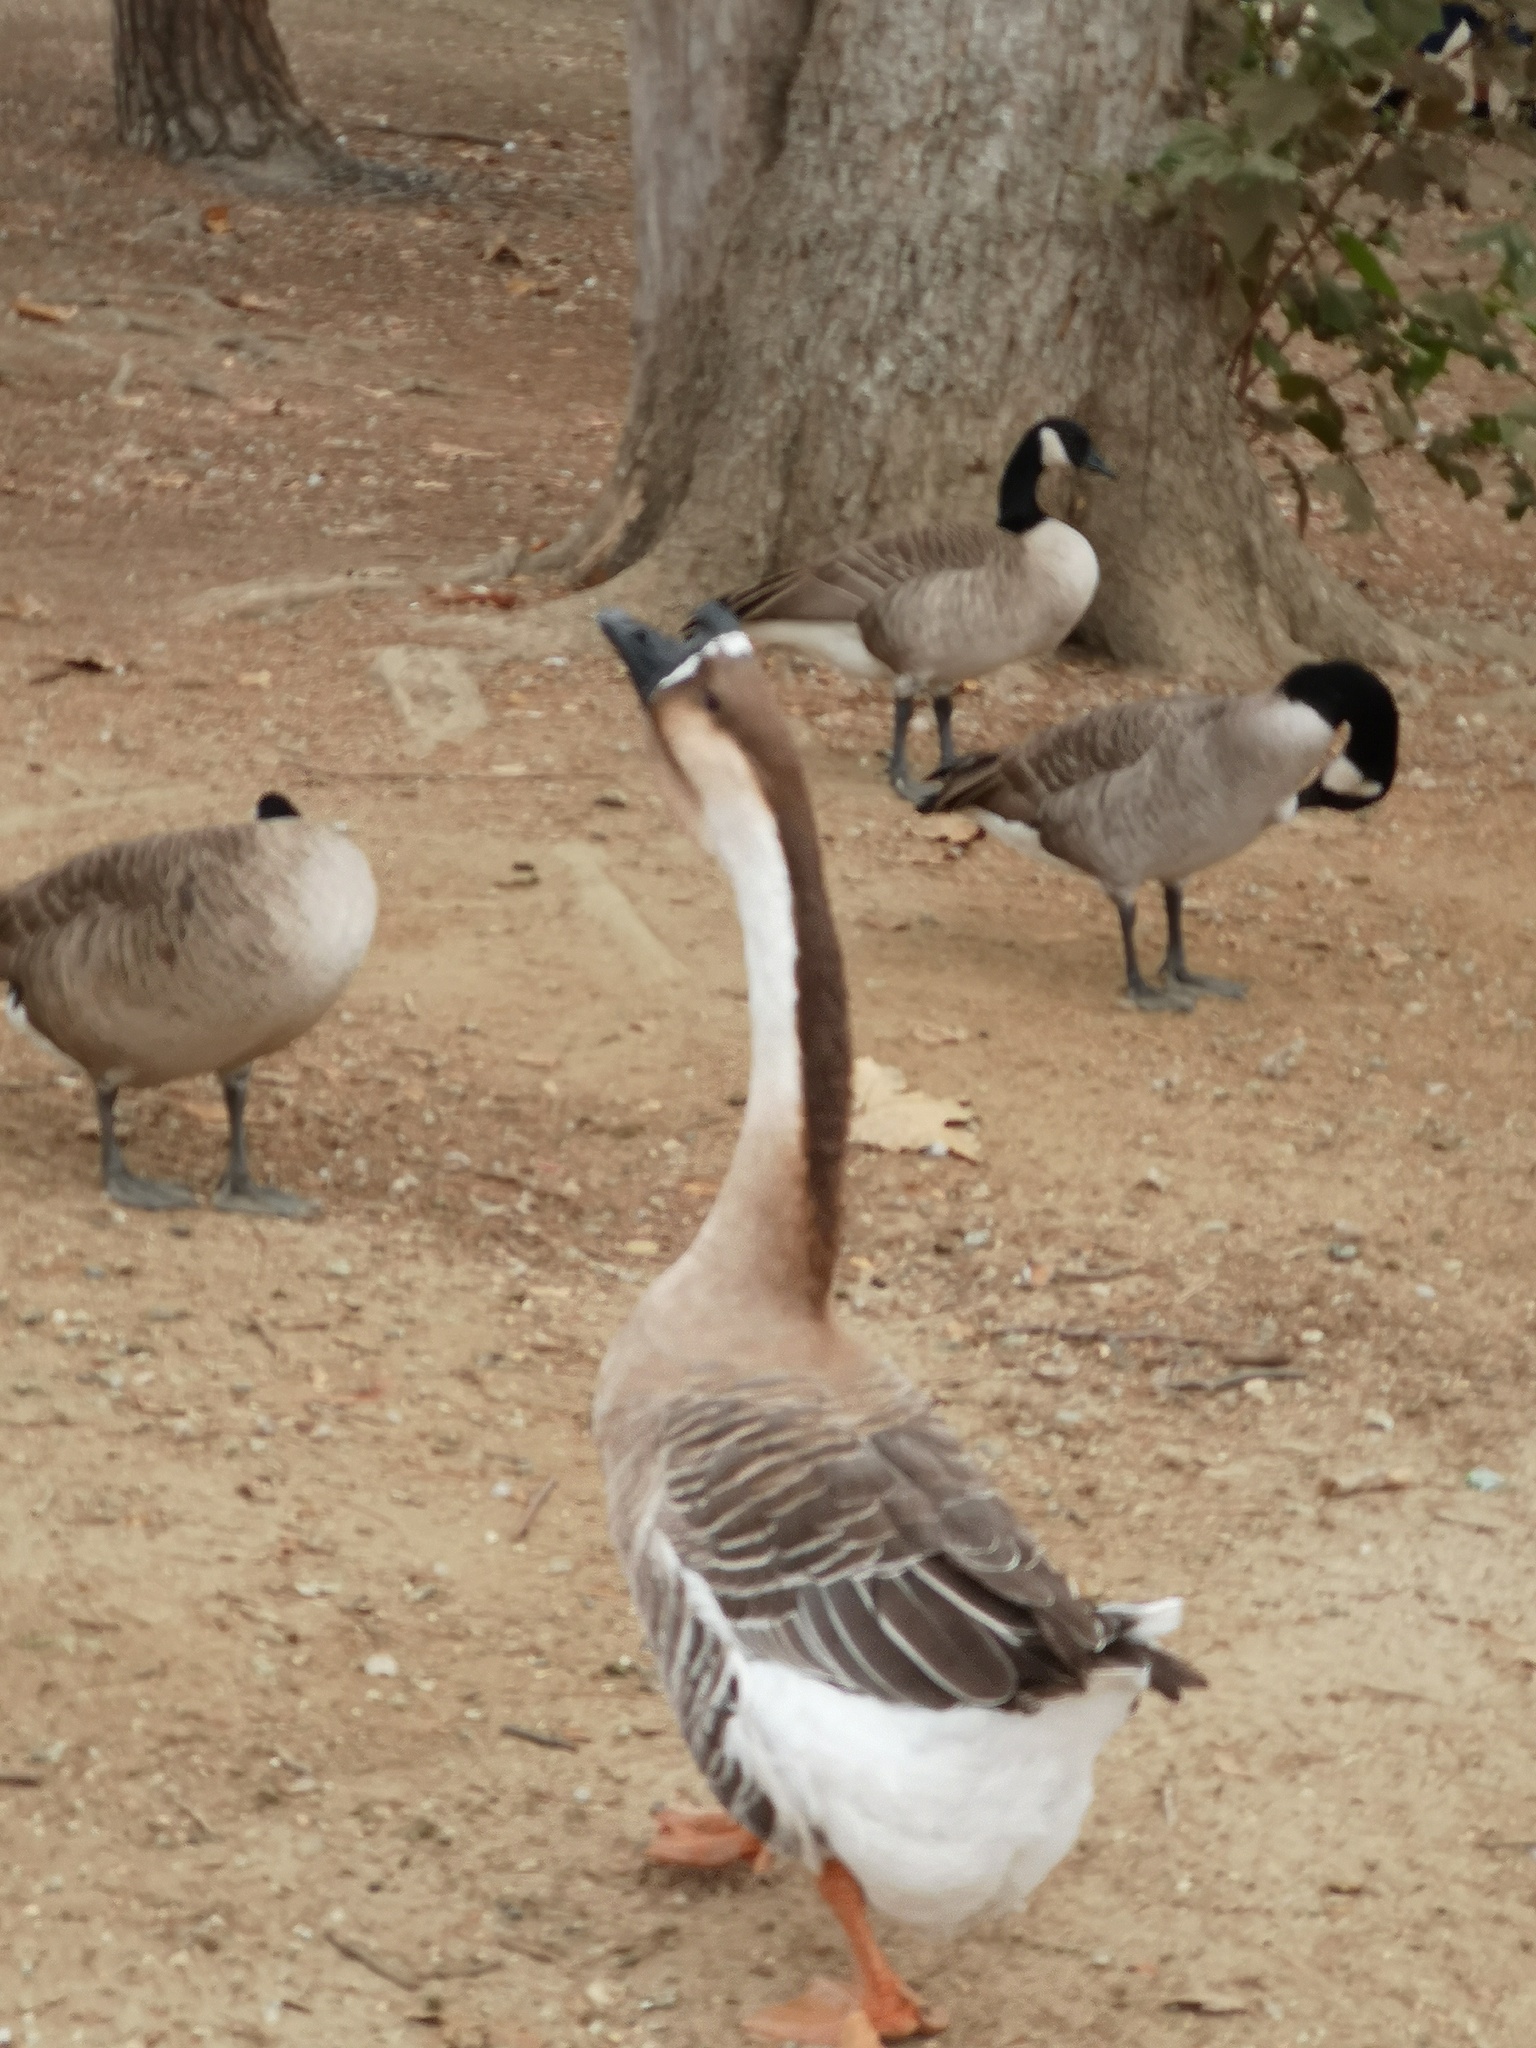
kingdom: Animalia
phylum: Chordata
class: Aves
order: Anseriformes
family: Anatidae
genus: Anser
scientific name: Anser cygnoides
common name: Swan goose
